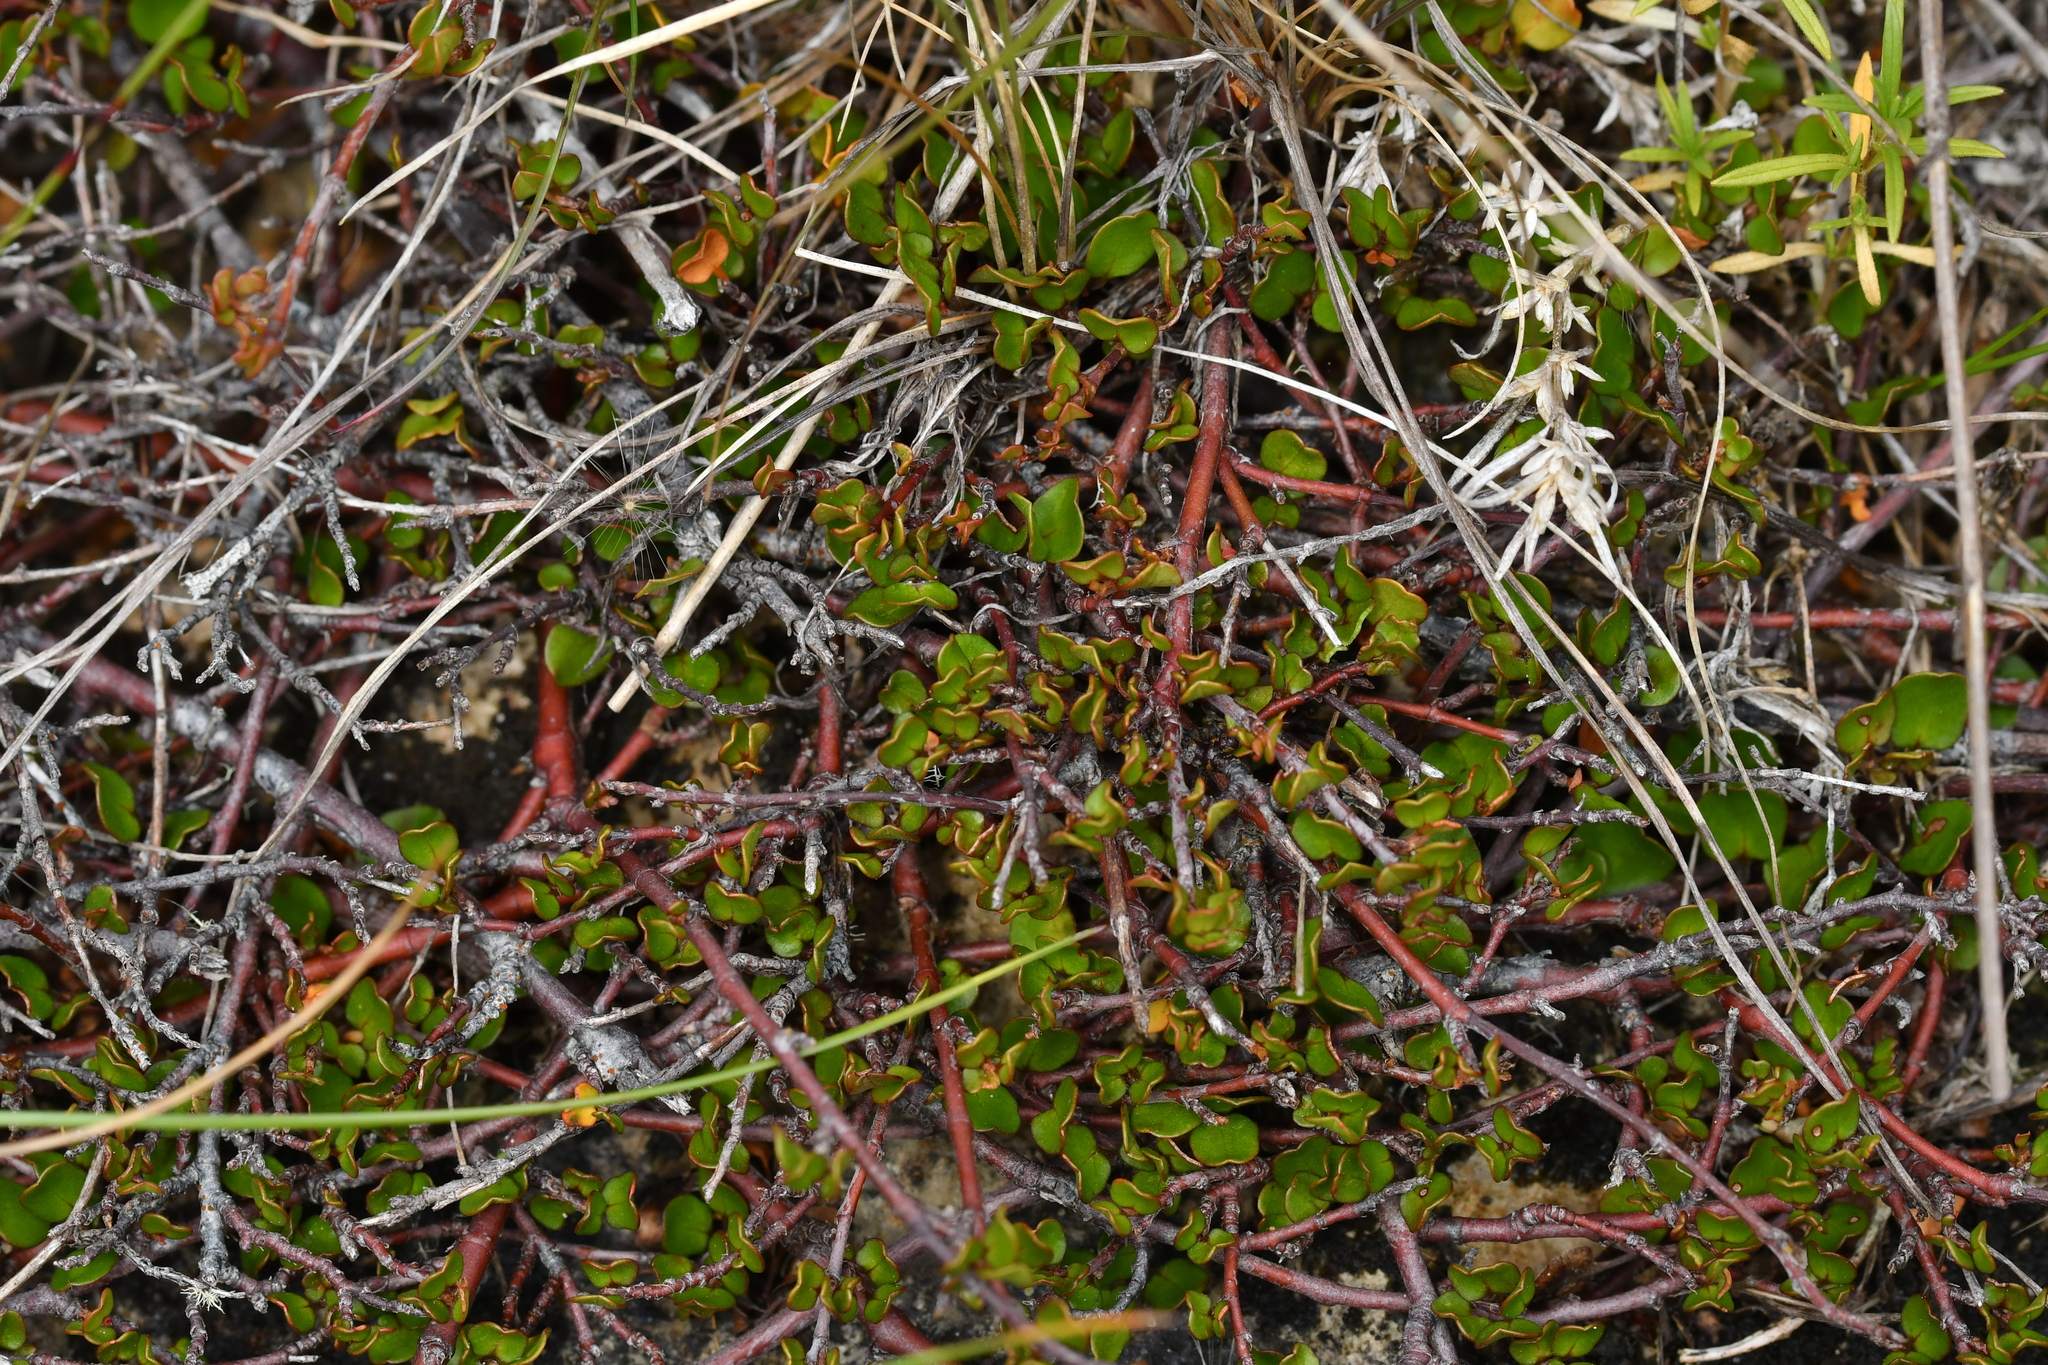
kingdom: Plantae
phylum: Tracheophyta
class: Magnoliopsida
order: Caryophyllales
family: Polygonaceae
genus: Muehlenbeckia
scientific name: Muehlenbeckia complexa
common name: Wireplant
